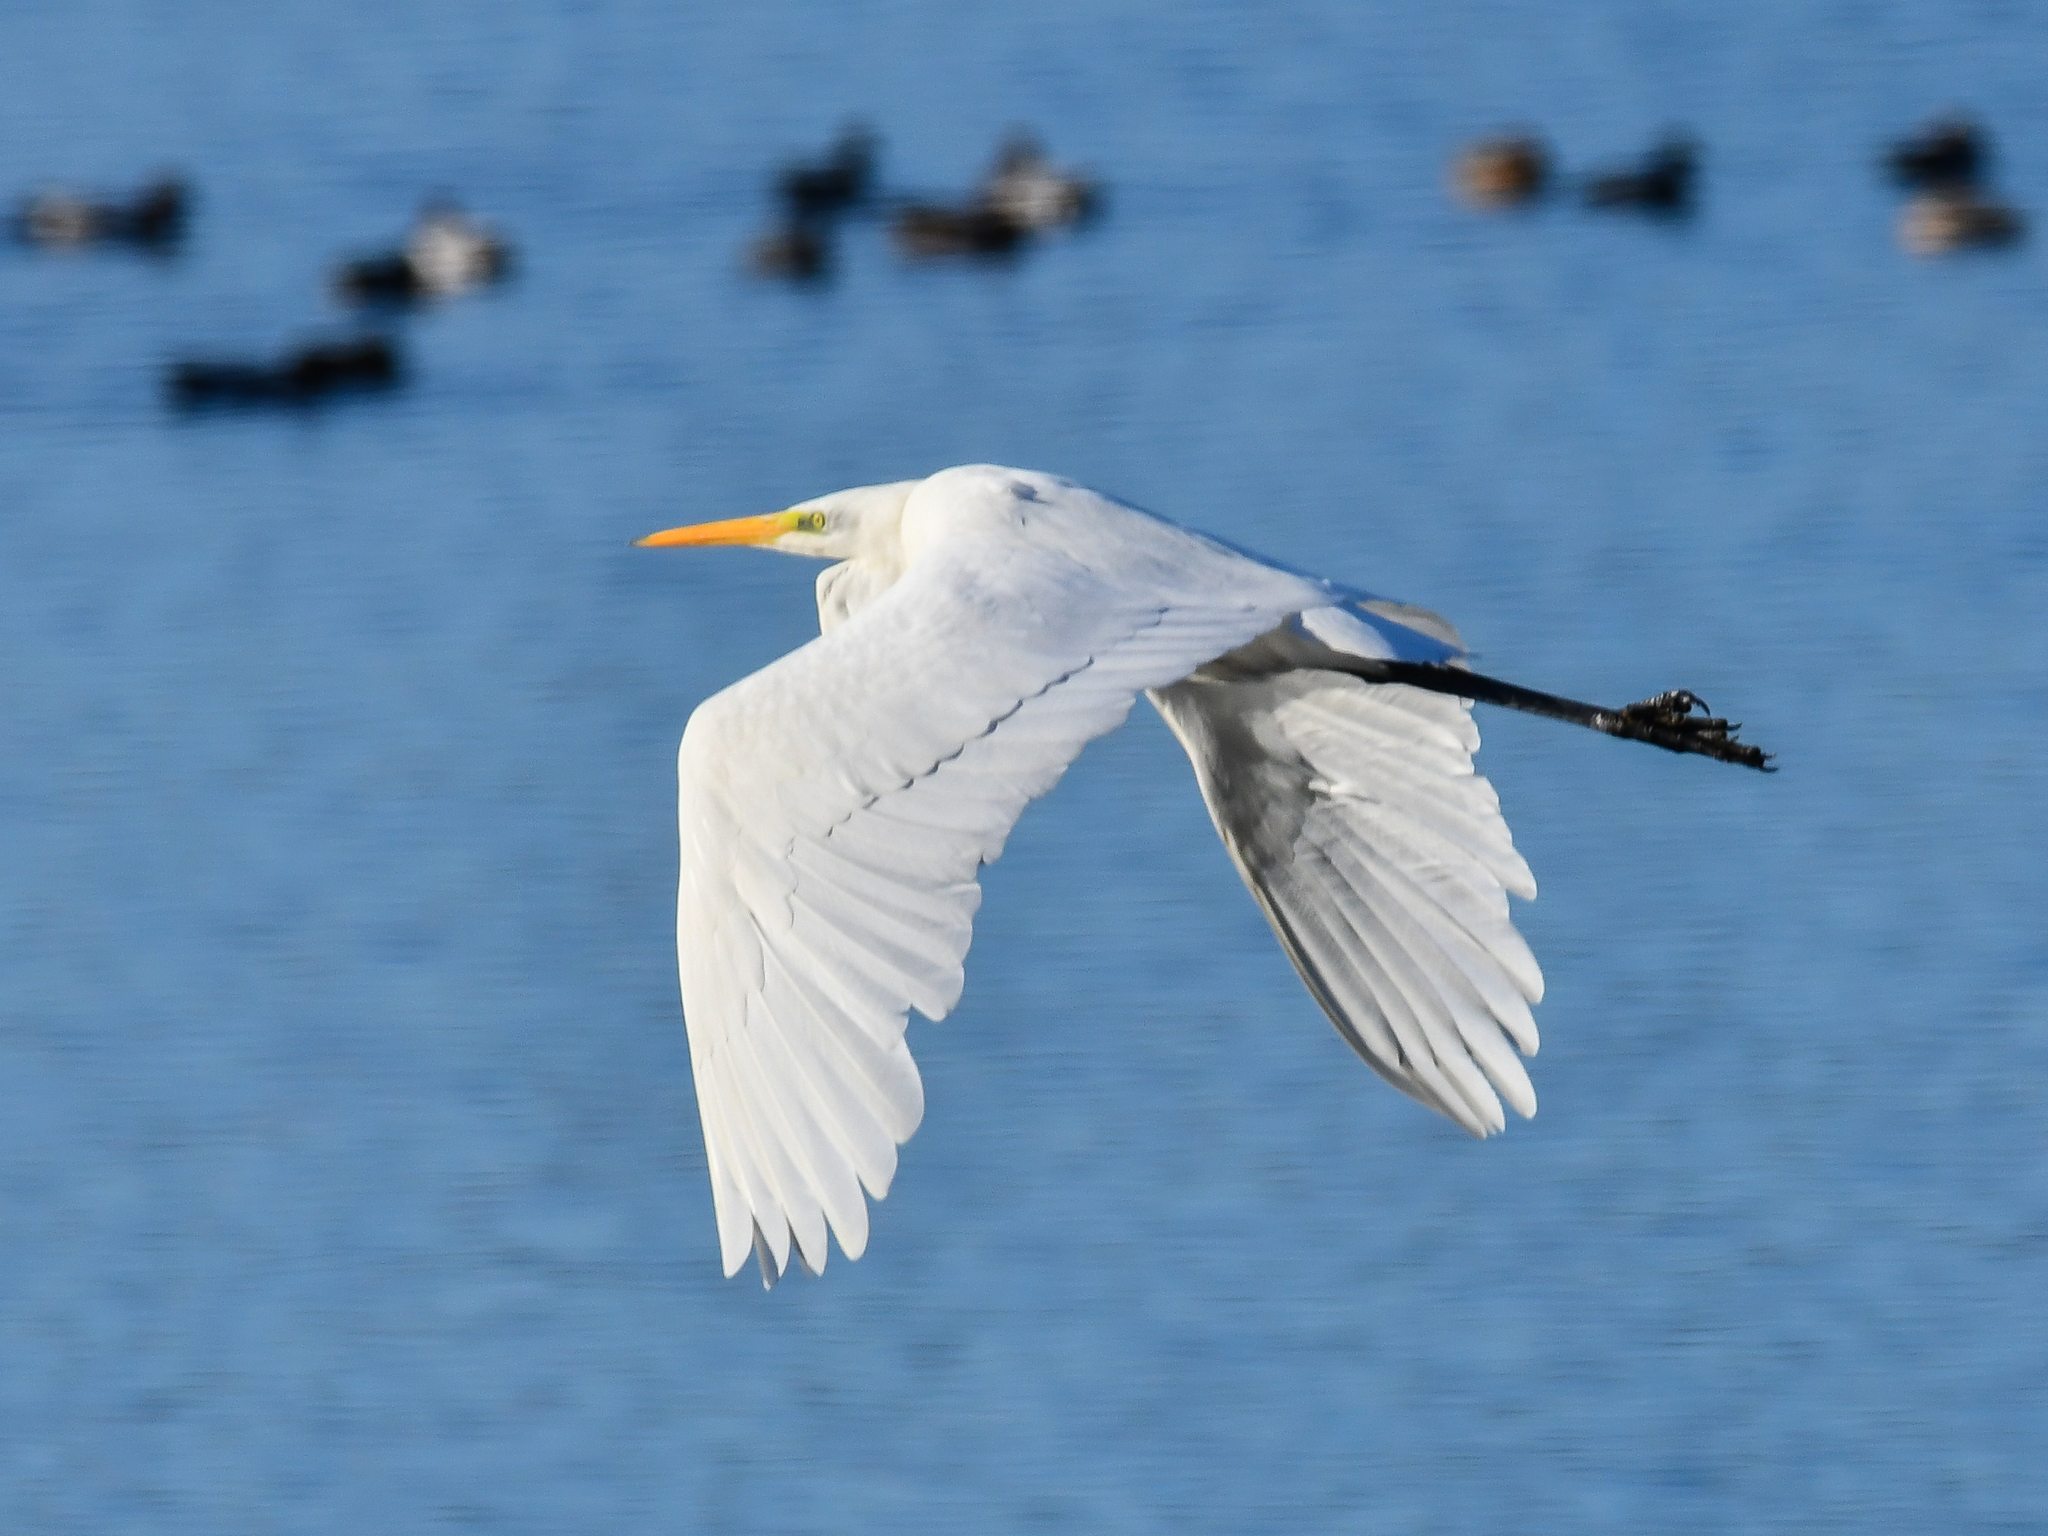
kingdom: Animalia
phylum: Chordata
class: Aves
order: Pelecaniformes
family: Ardeidae
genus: Ardea
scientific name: Ardea alba
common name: Great egret
